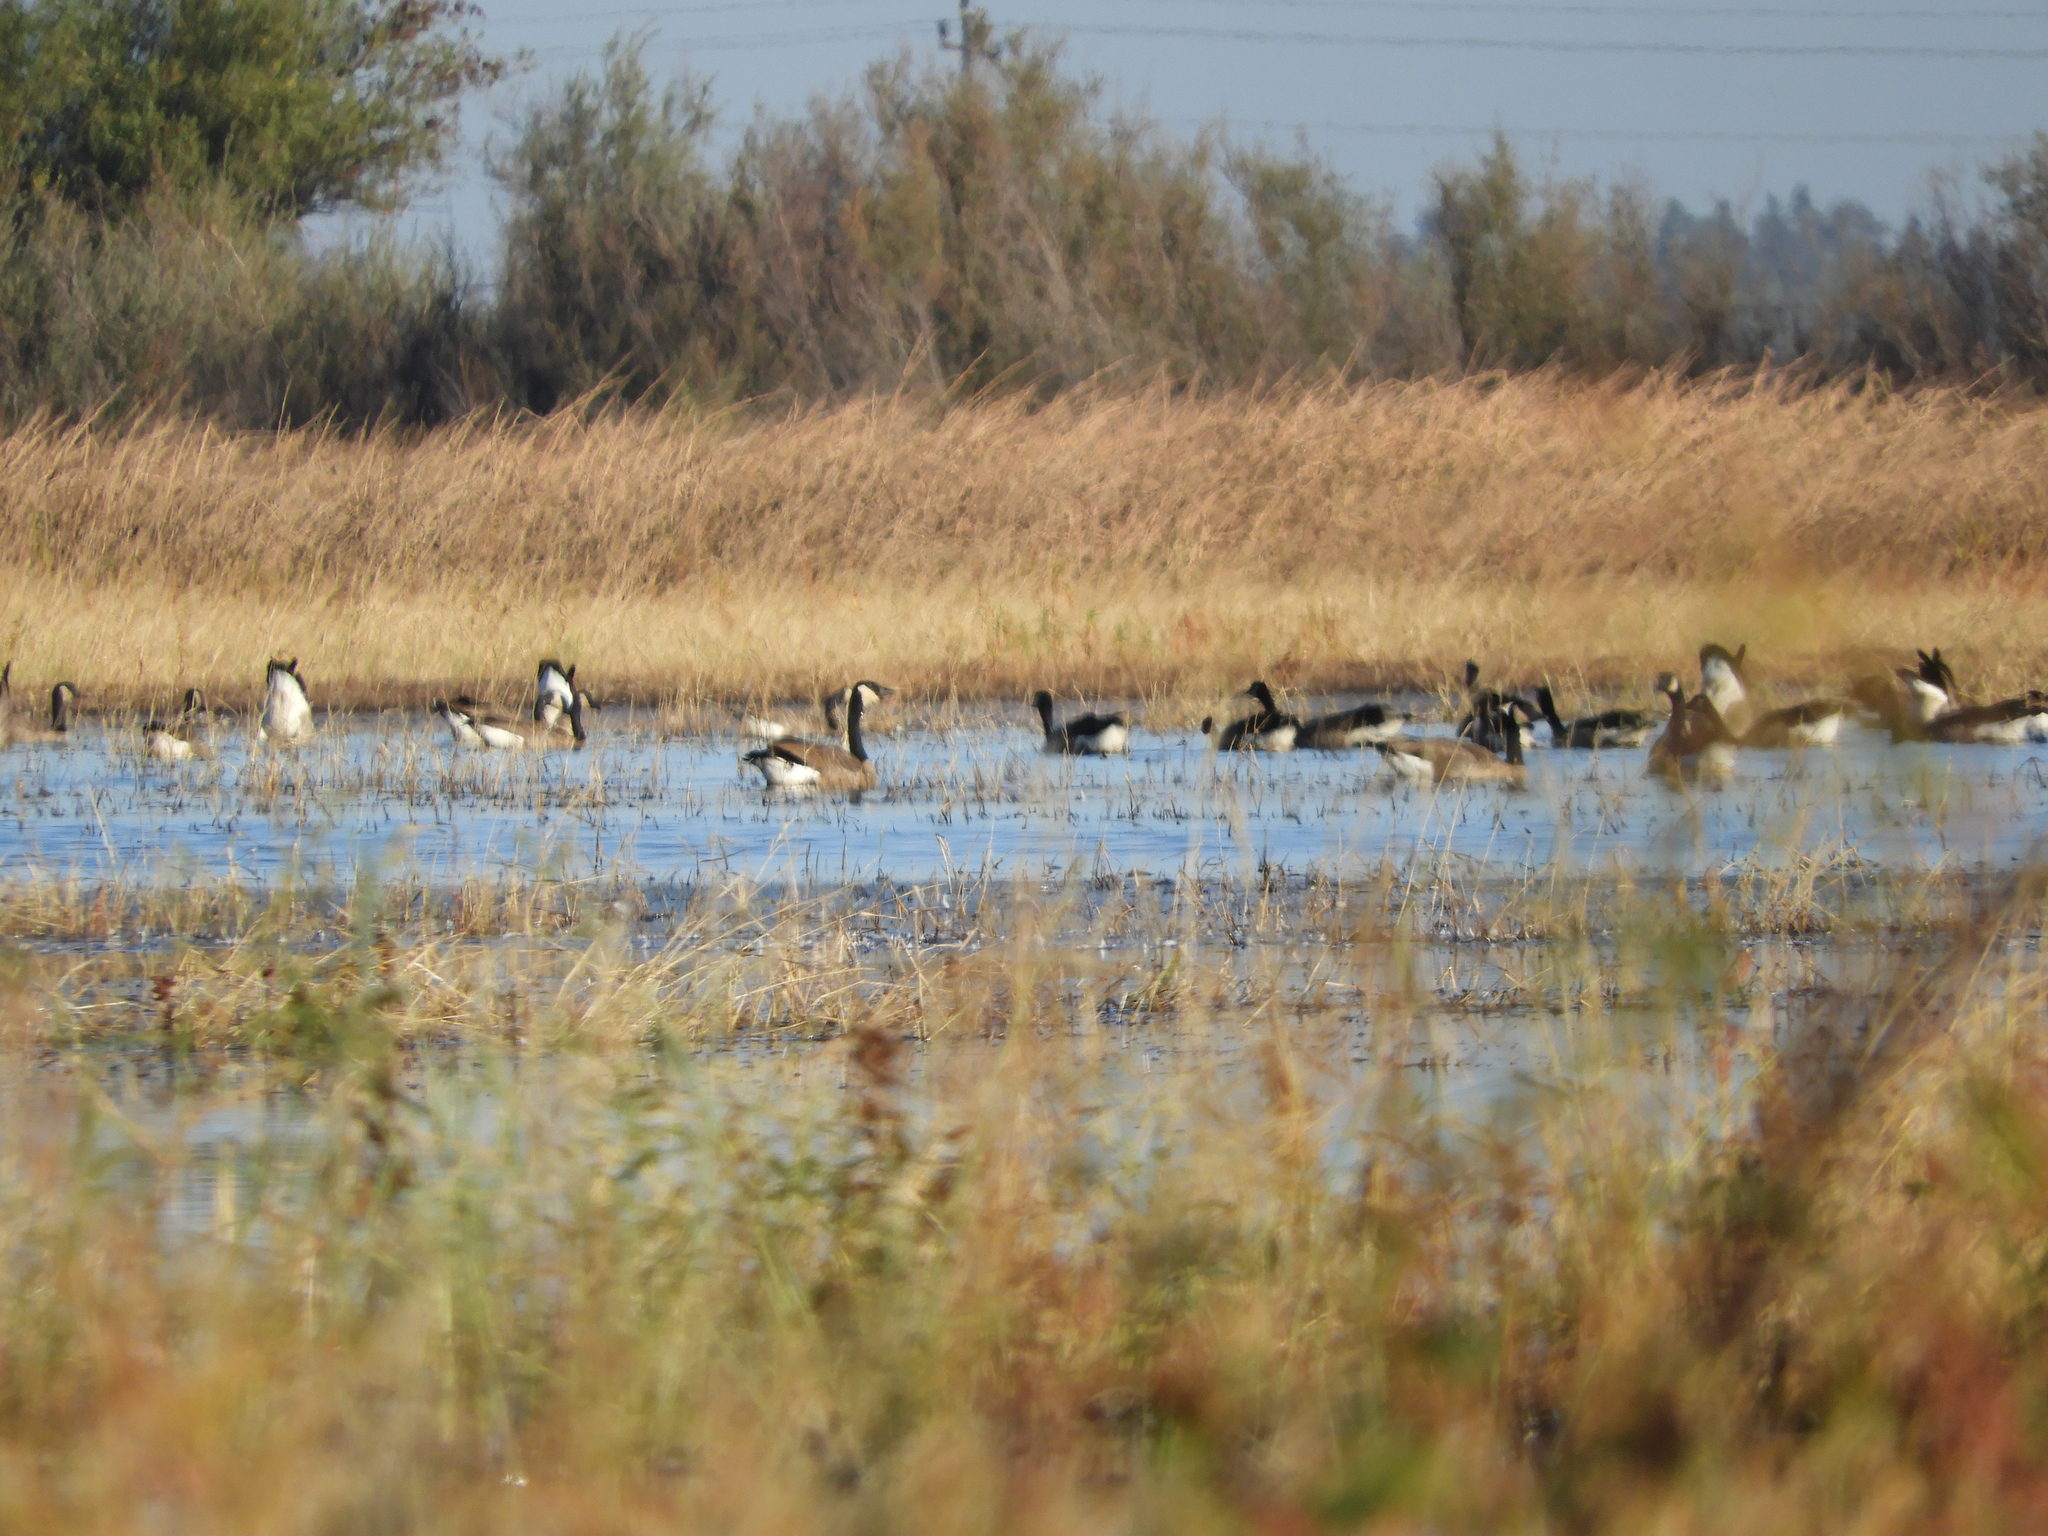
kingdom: Animalia
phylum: Chordata
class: Aves
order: Anseriformes
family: Anatidae
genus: Branta
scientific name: Branta canadensis
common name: Canada goose
